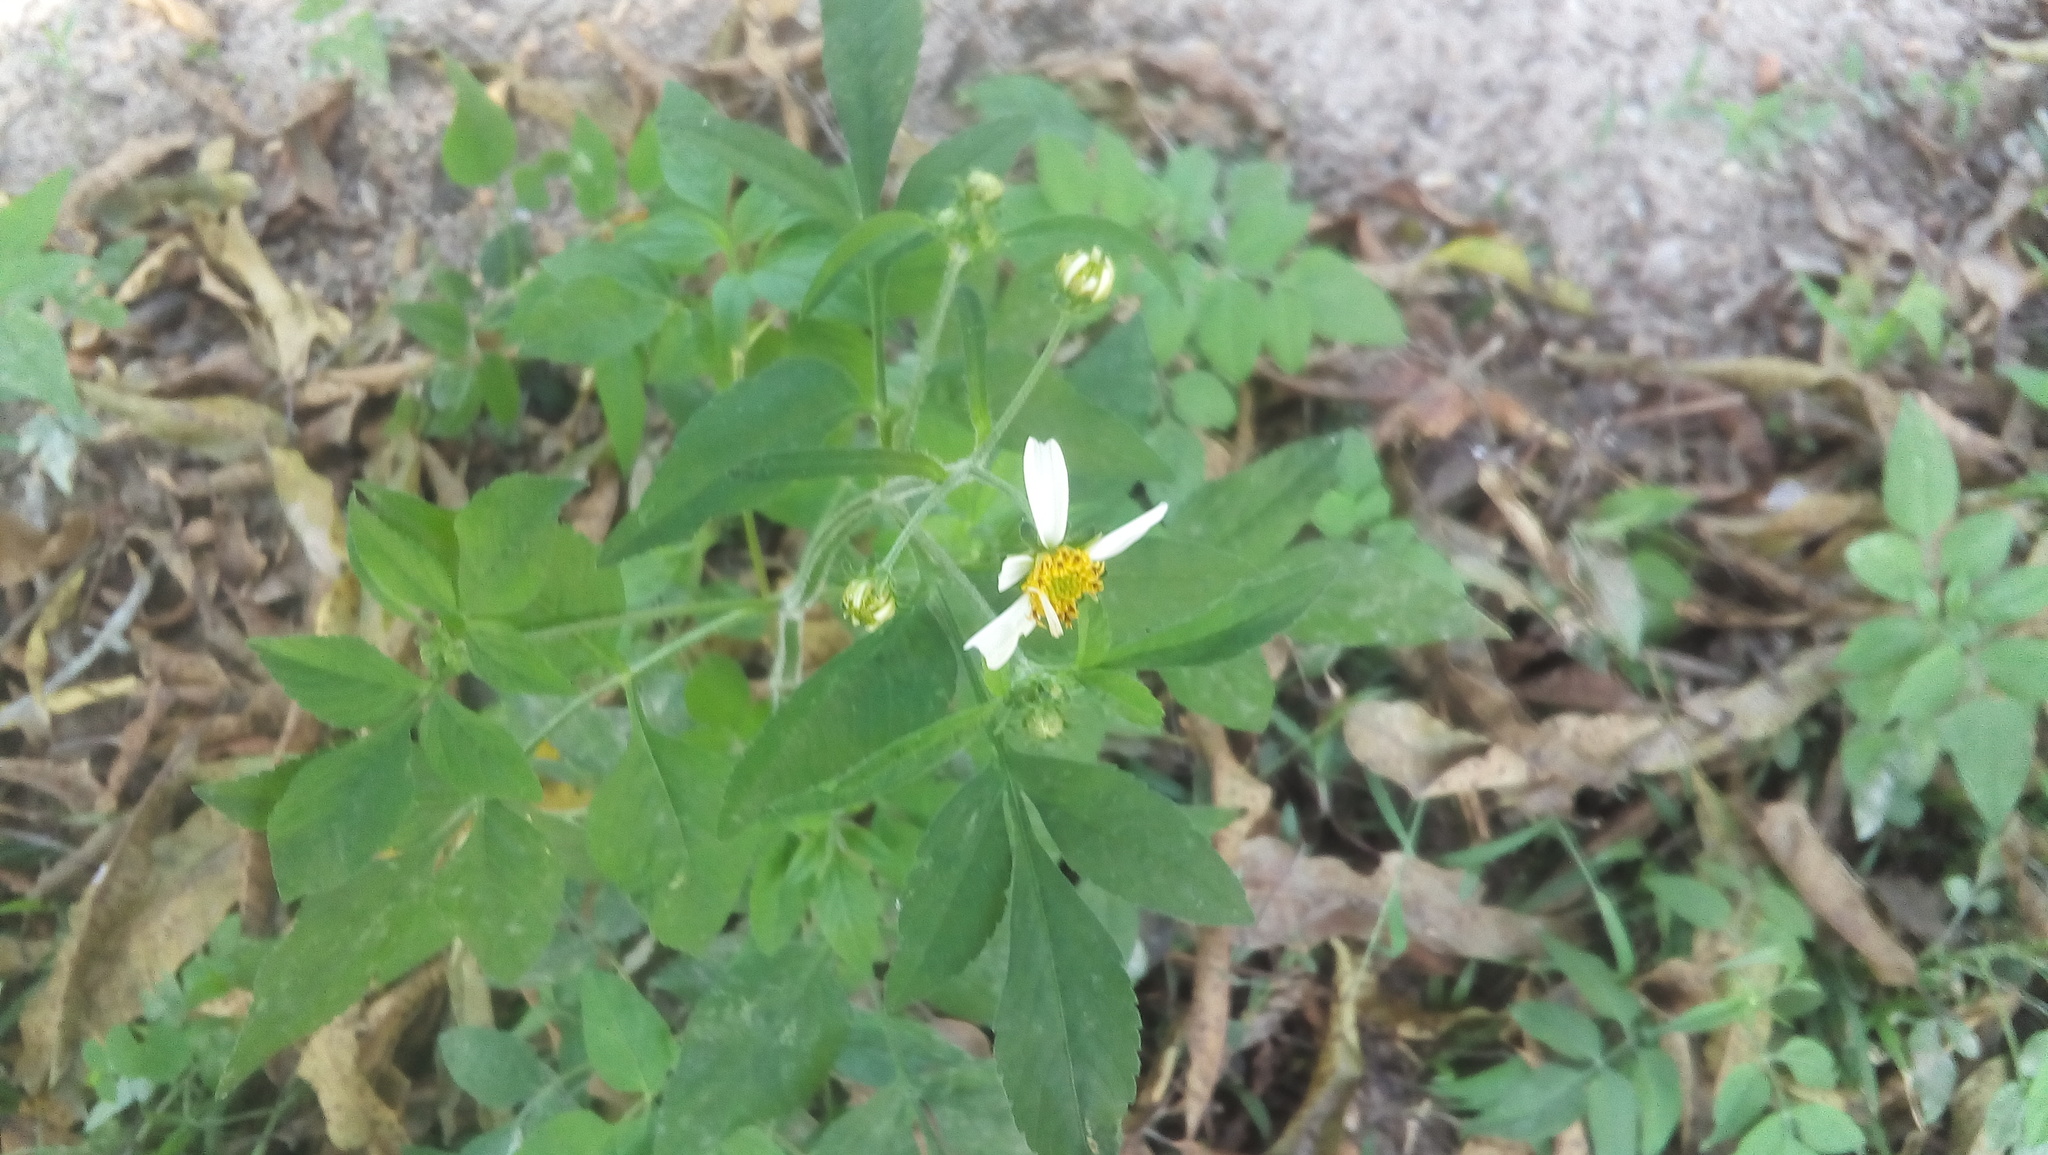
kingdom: Plantae
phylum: Tracheophyta
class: Magnoliopsida
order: Asterales
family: Asteraceae
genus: Bidens
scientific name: Bidens alba
